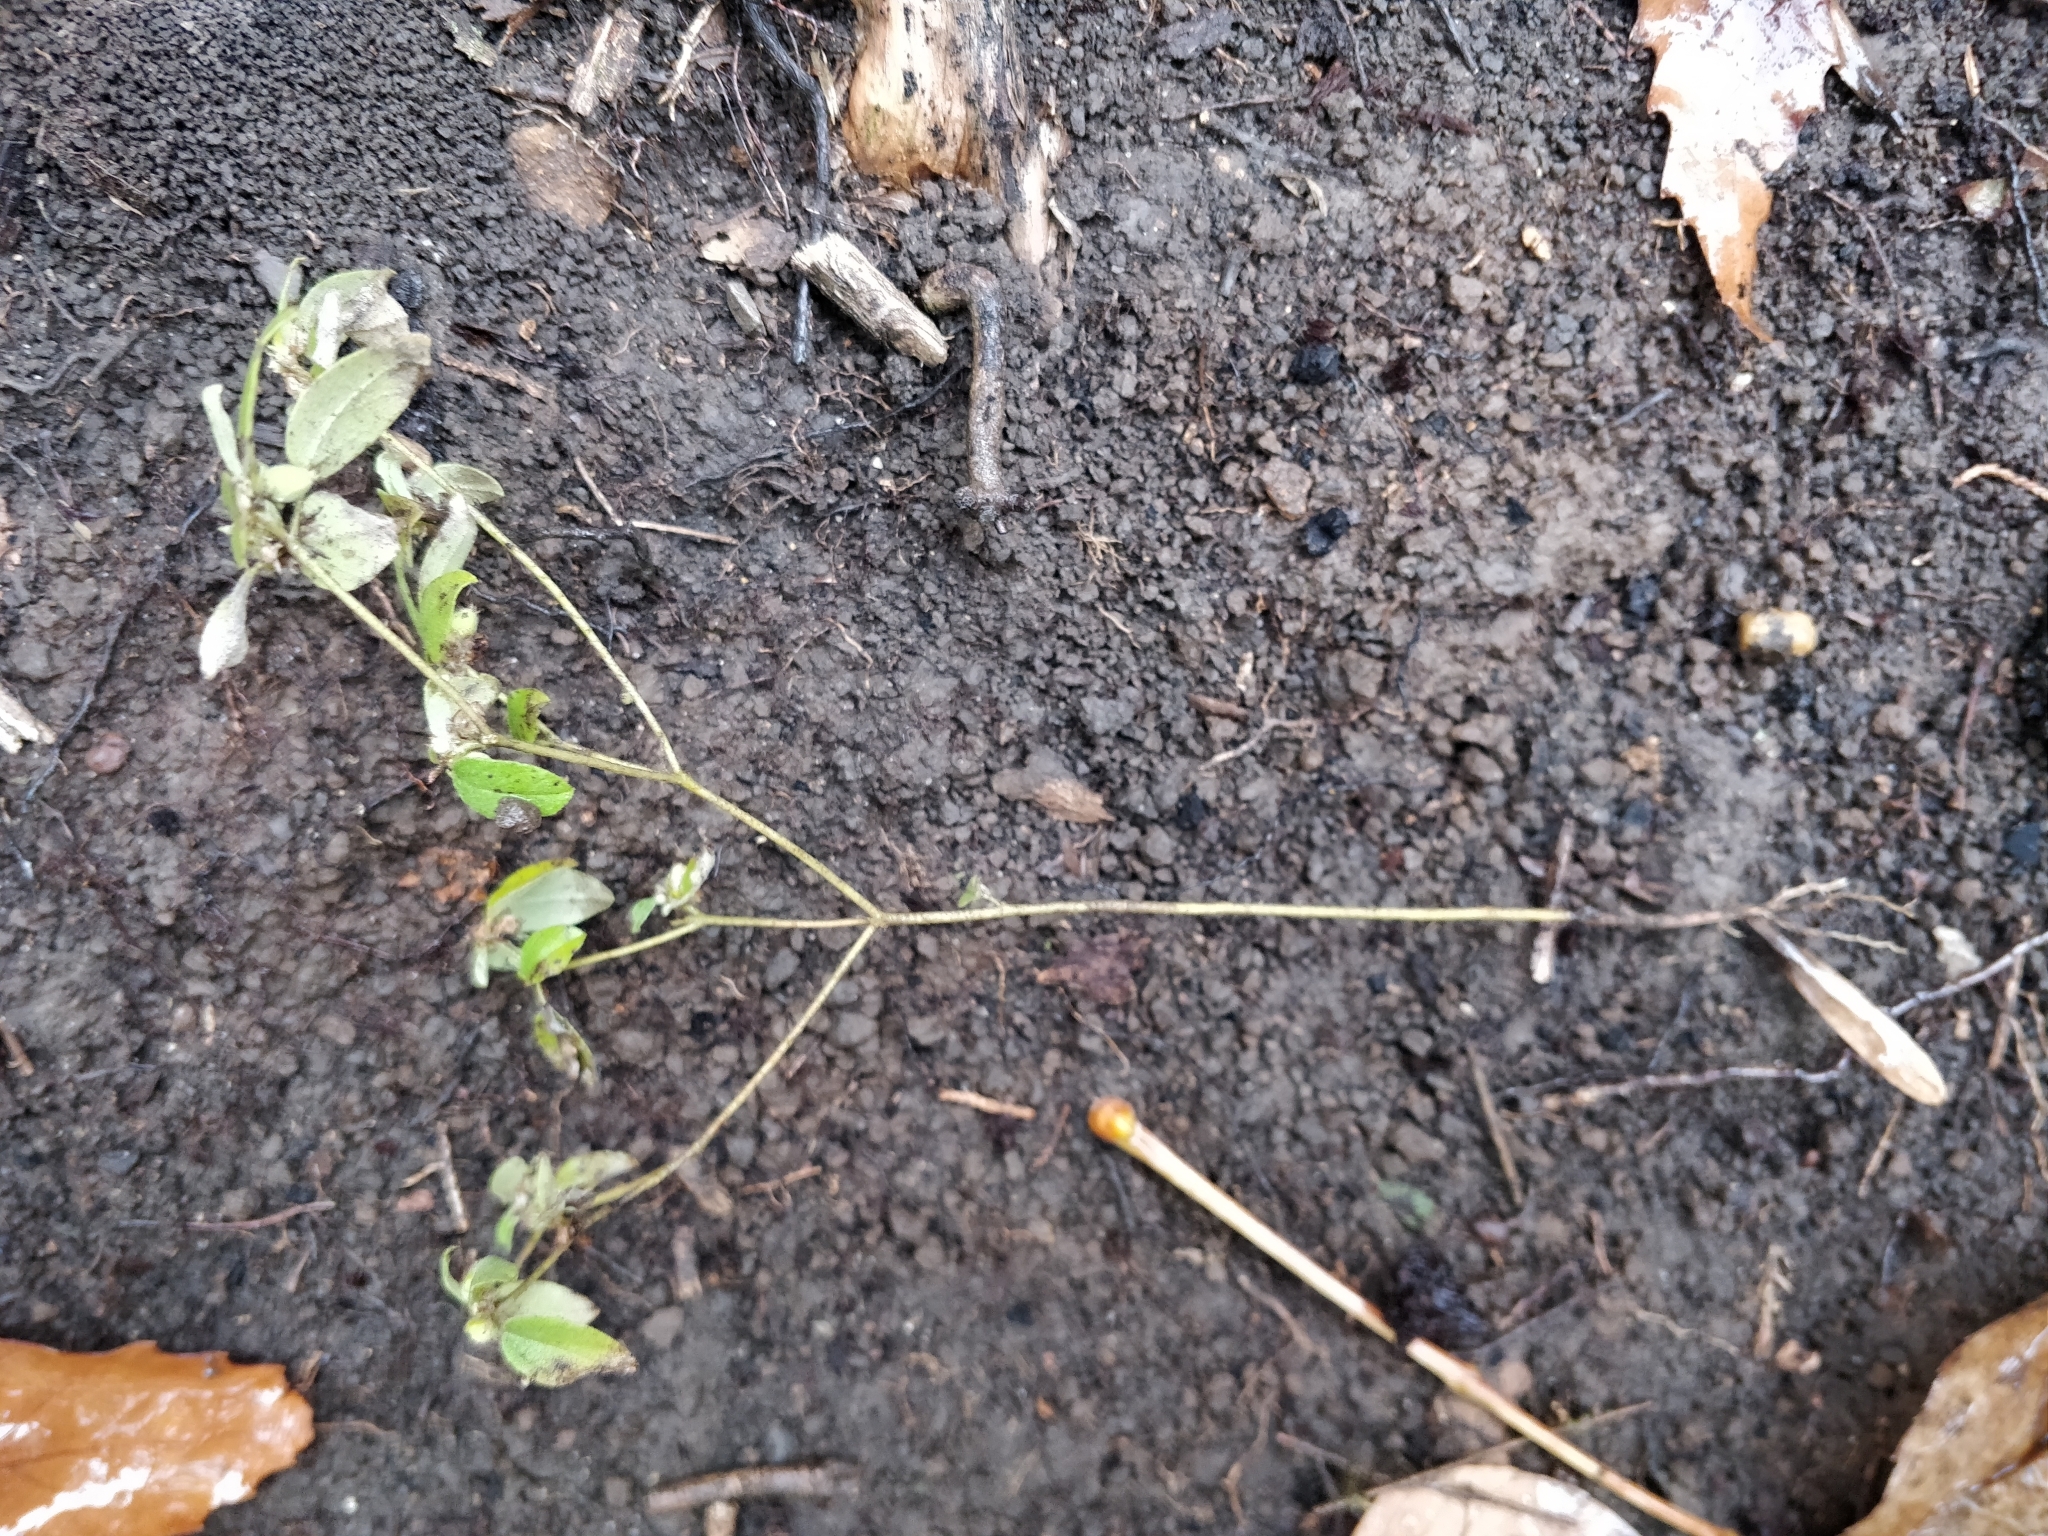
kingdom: Plantae
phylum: Tracheophyta
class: Magnoliopsida
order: Malpighiales
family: Euphorbiaceae
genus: Croton
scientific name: Croton monanthogynus
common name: One-seed croton
